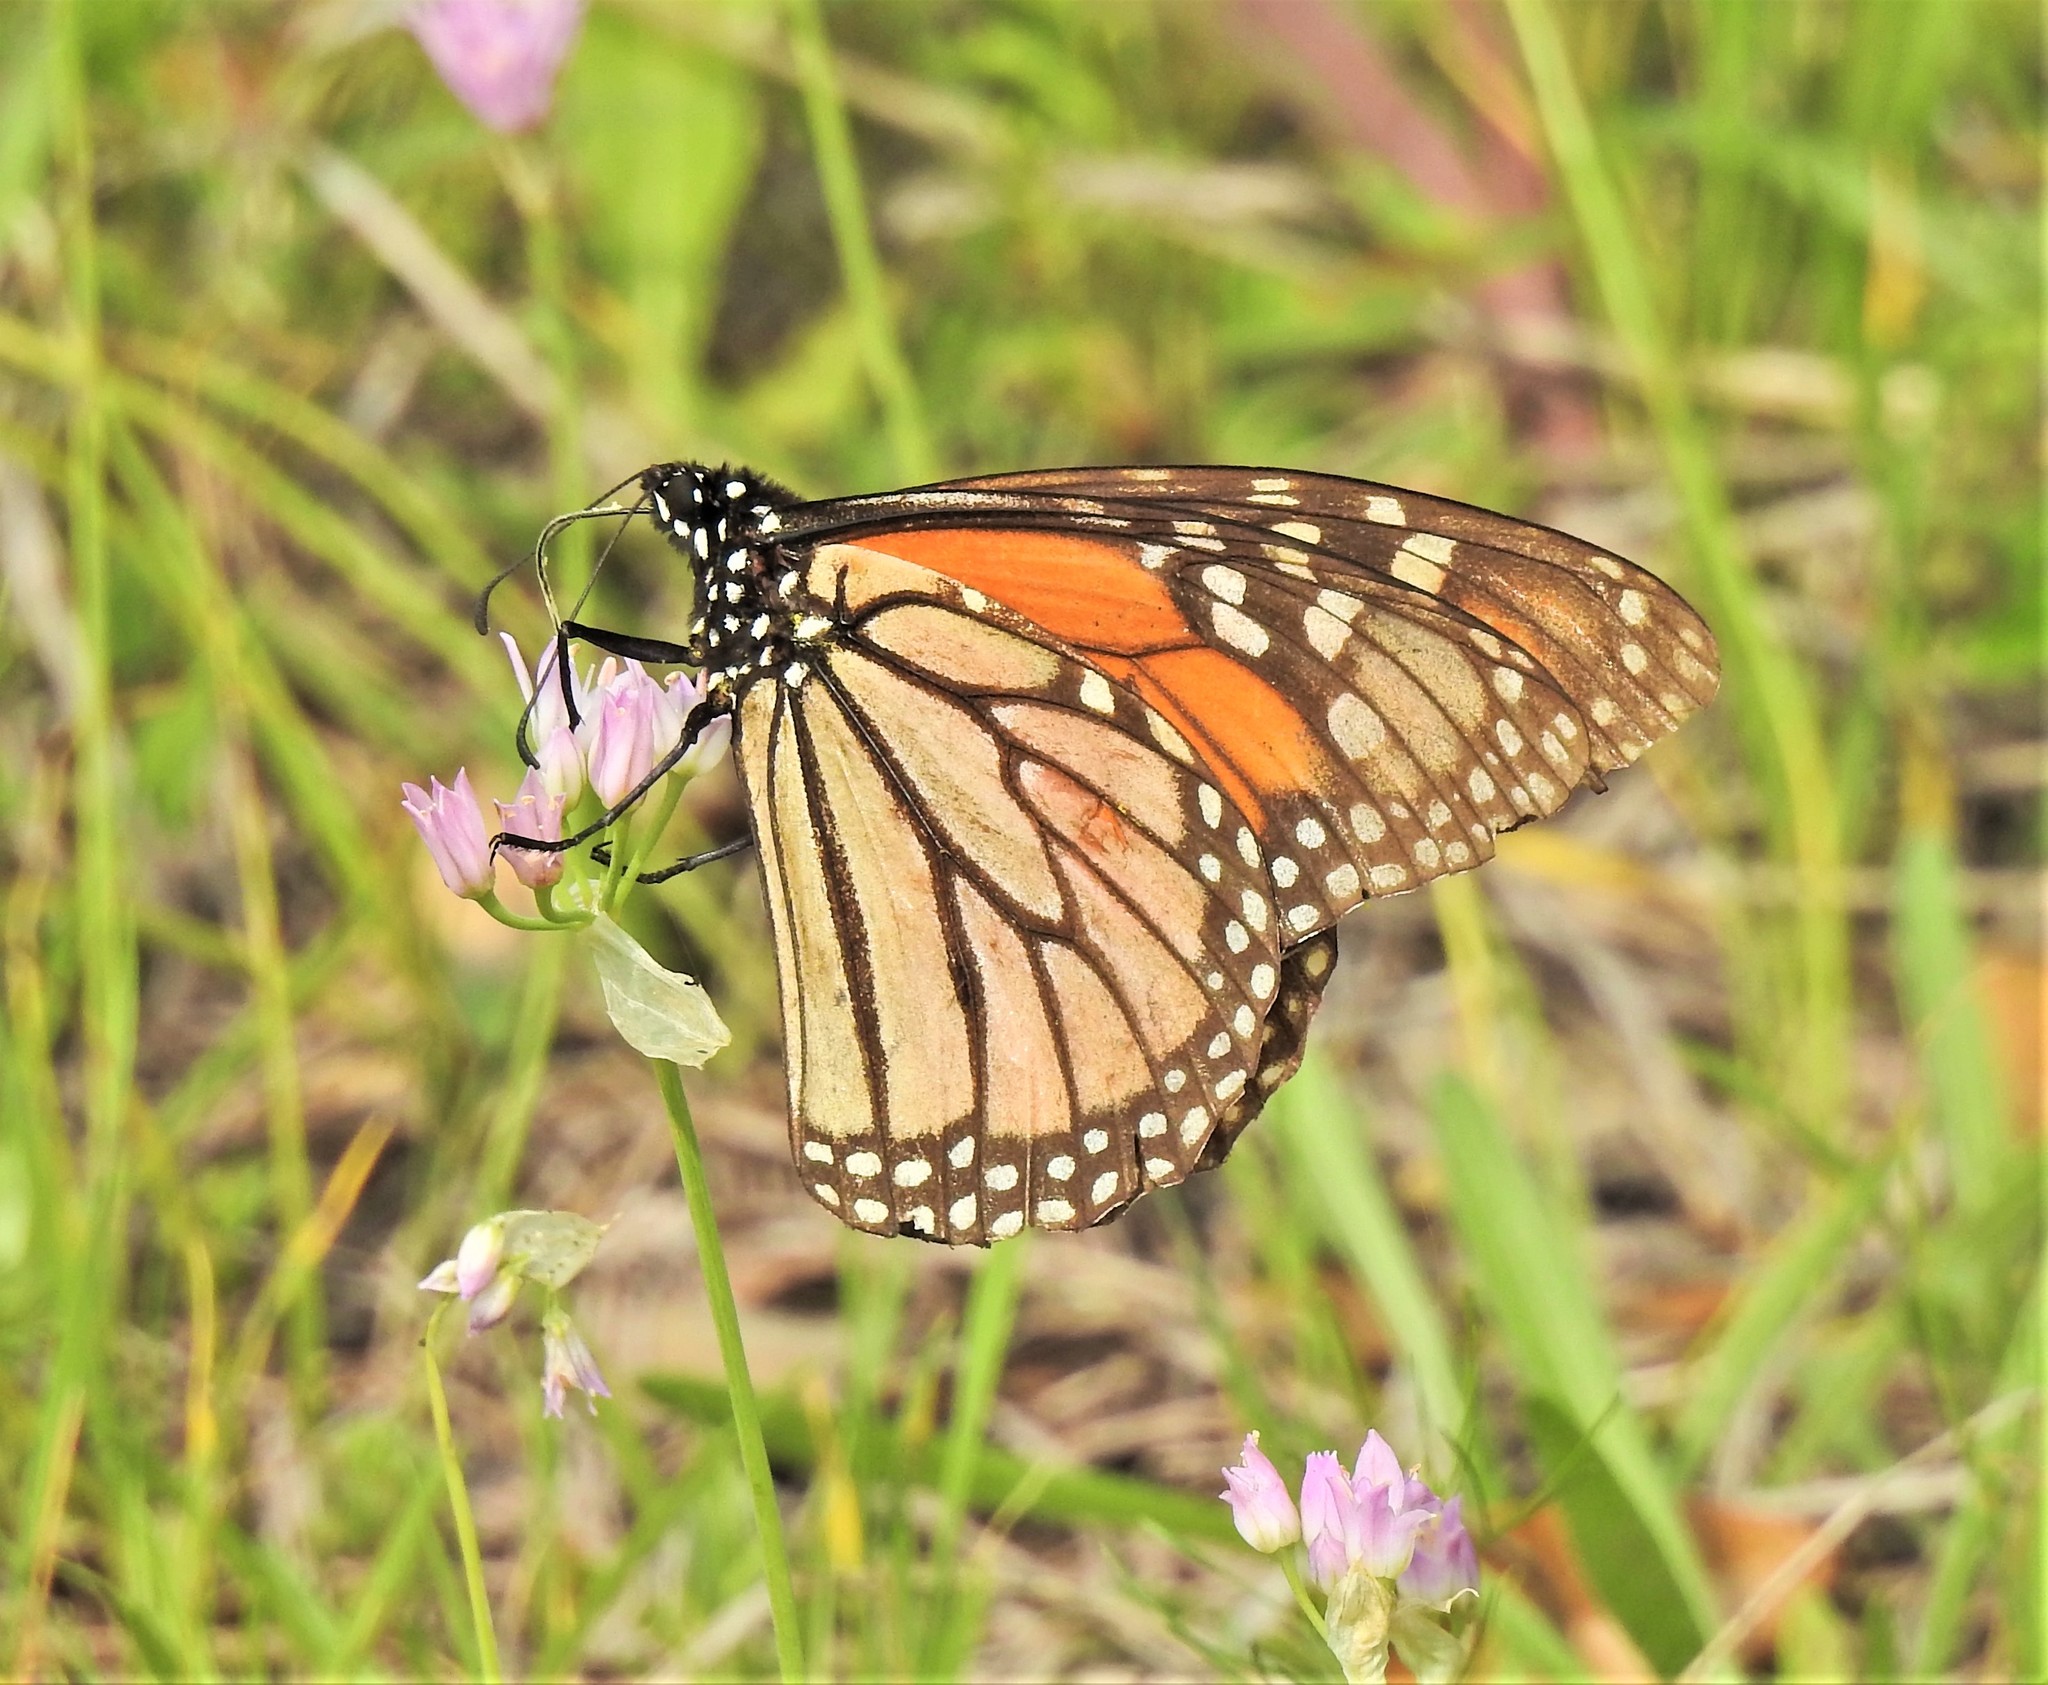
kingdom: Animalia
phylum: Arthropoda
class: Insecta
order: Lepidoptera
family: Nymphalidae
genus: Danaus
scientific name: Danaus plexippus
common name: Monarch
